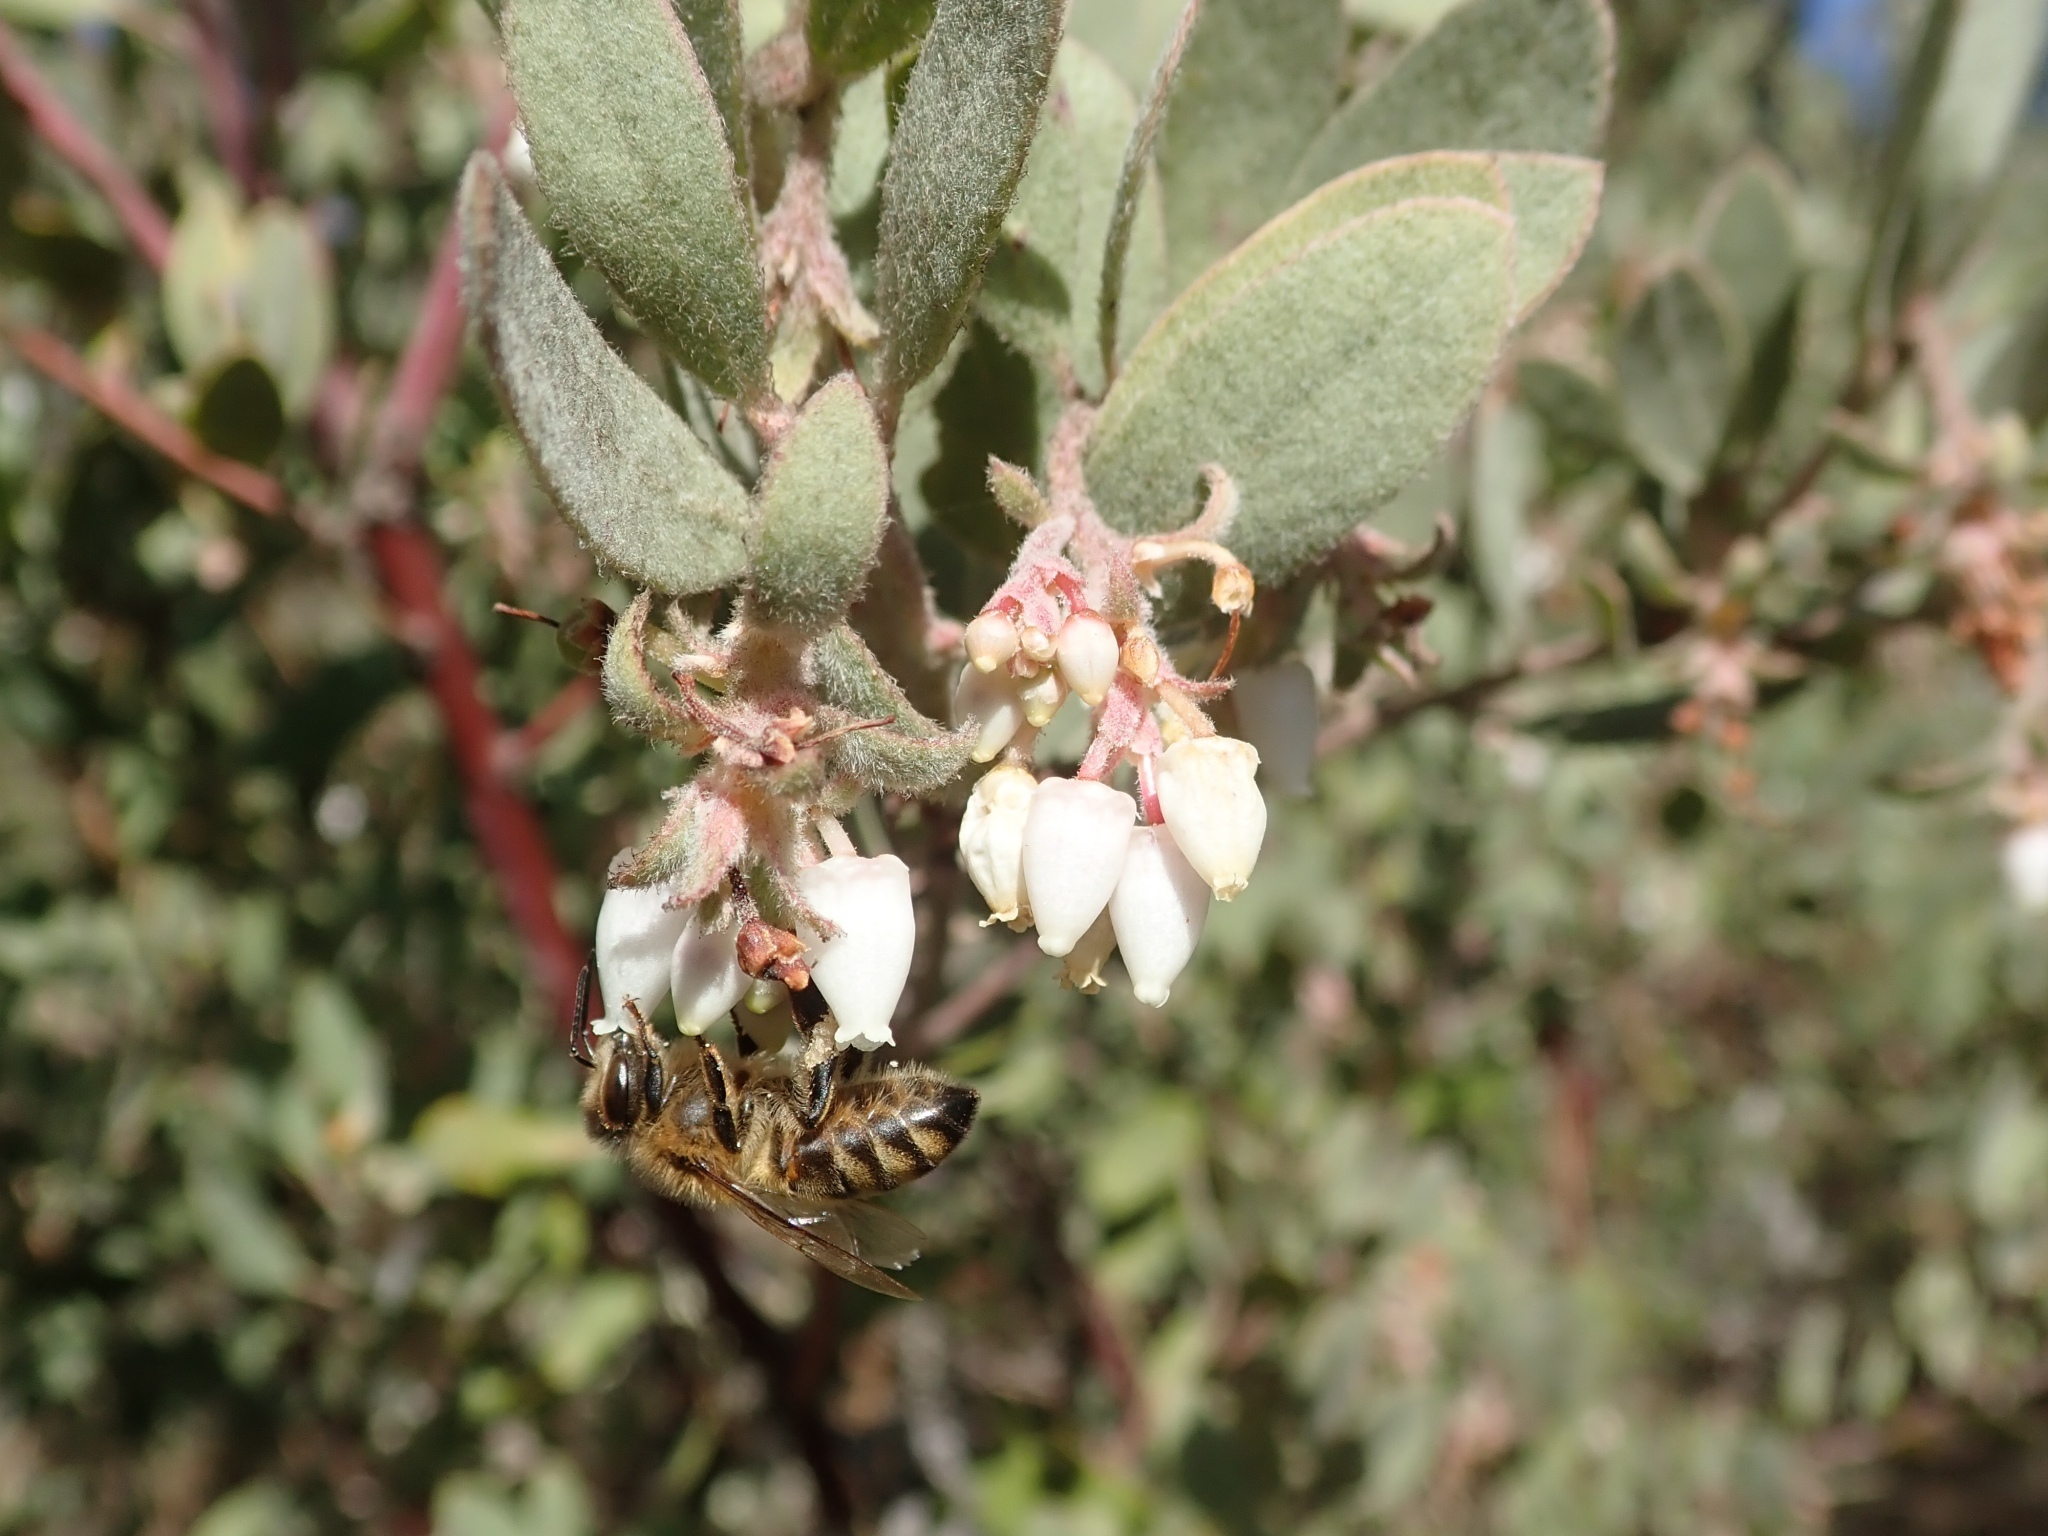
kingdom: Plantae
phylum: Tracheophyta
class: Magnoliopsida
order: Ericales
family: Ericaceae
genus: Arctostaphylos
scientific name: Arctostaphylos silvicola
